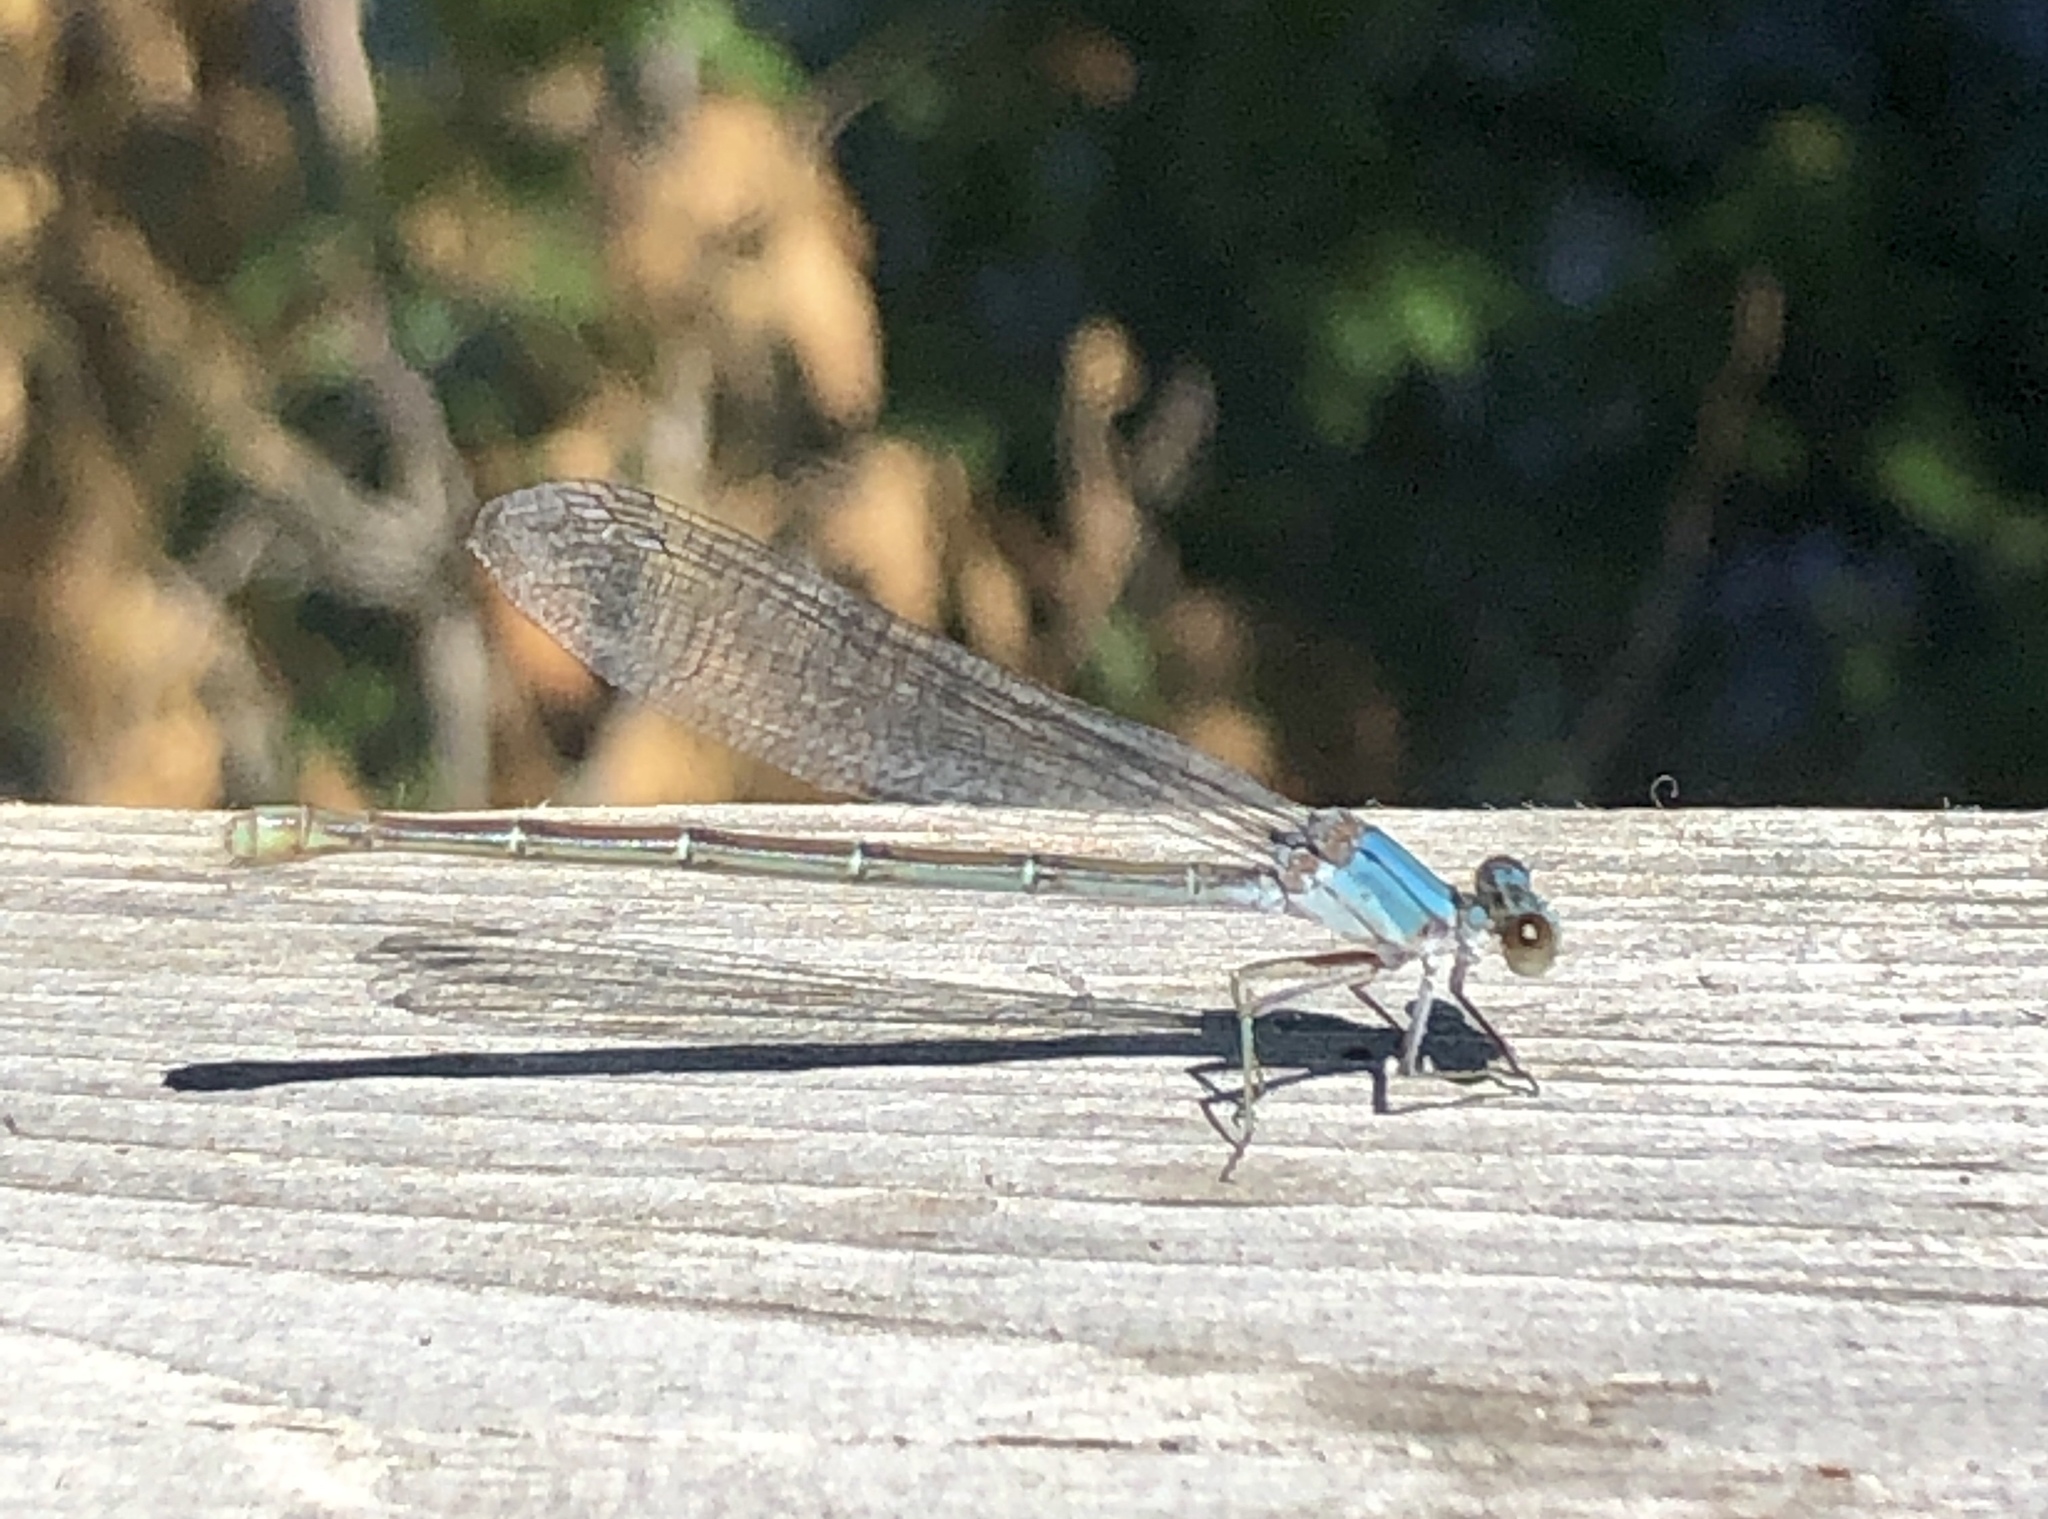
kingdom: Animalia
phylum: Arthropoda
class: Insecta
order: Odonata
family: Coenagrionidae
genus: Argia
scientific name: Argia moesta
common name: Powdered dancer
